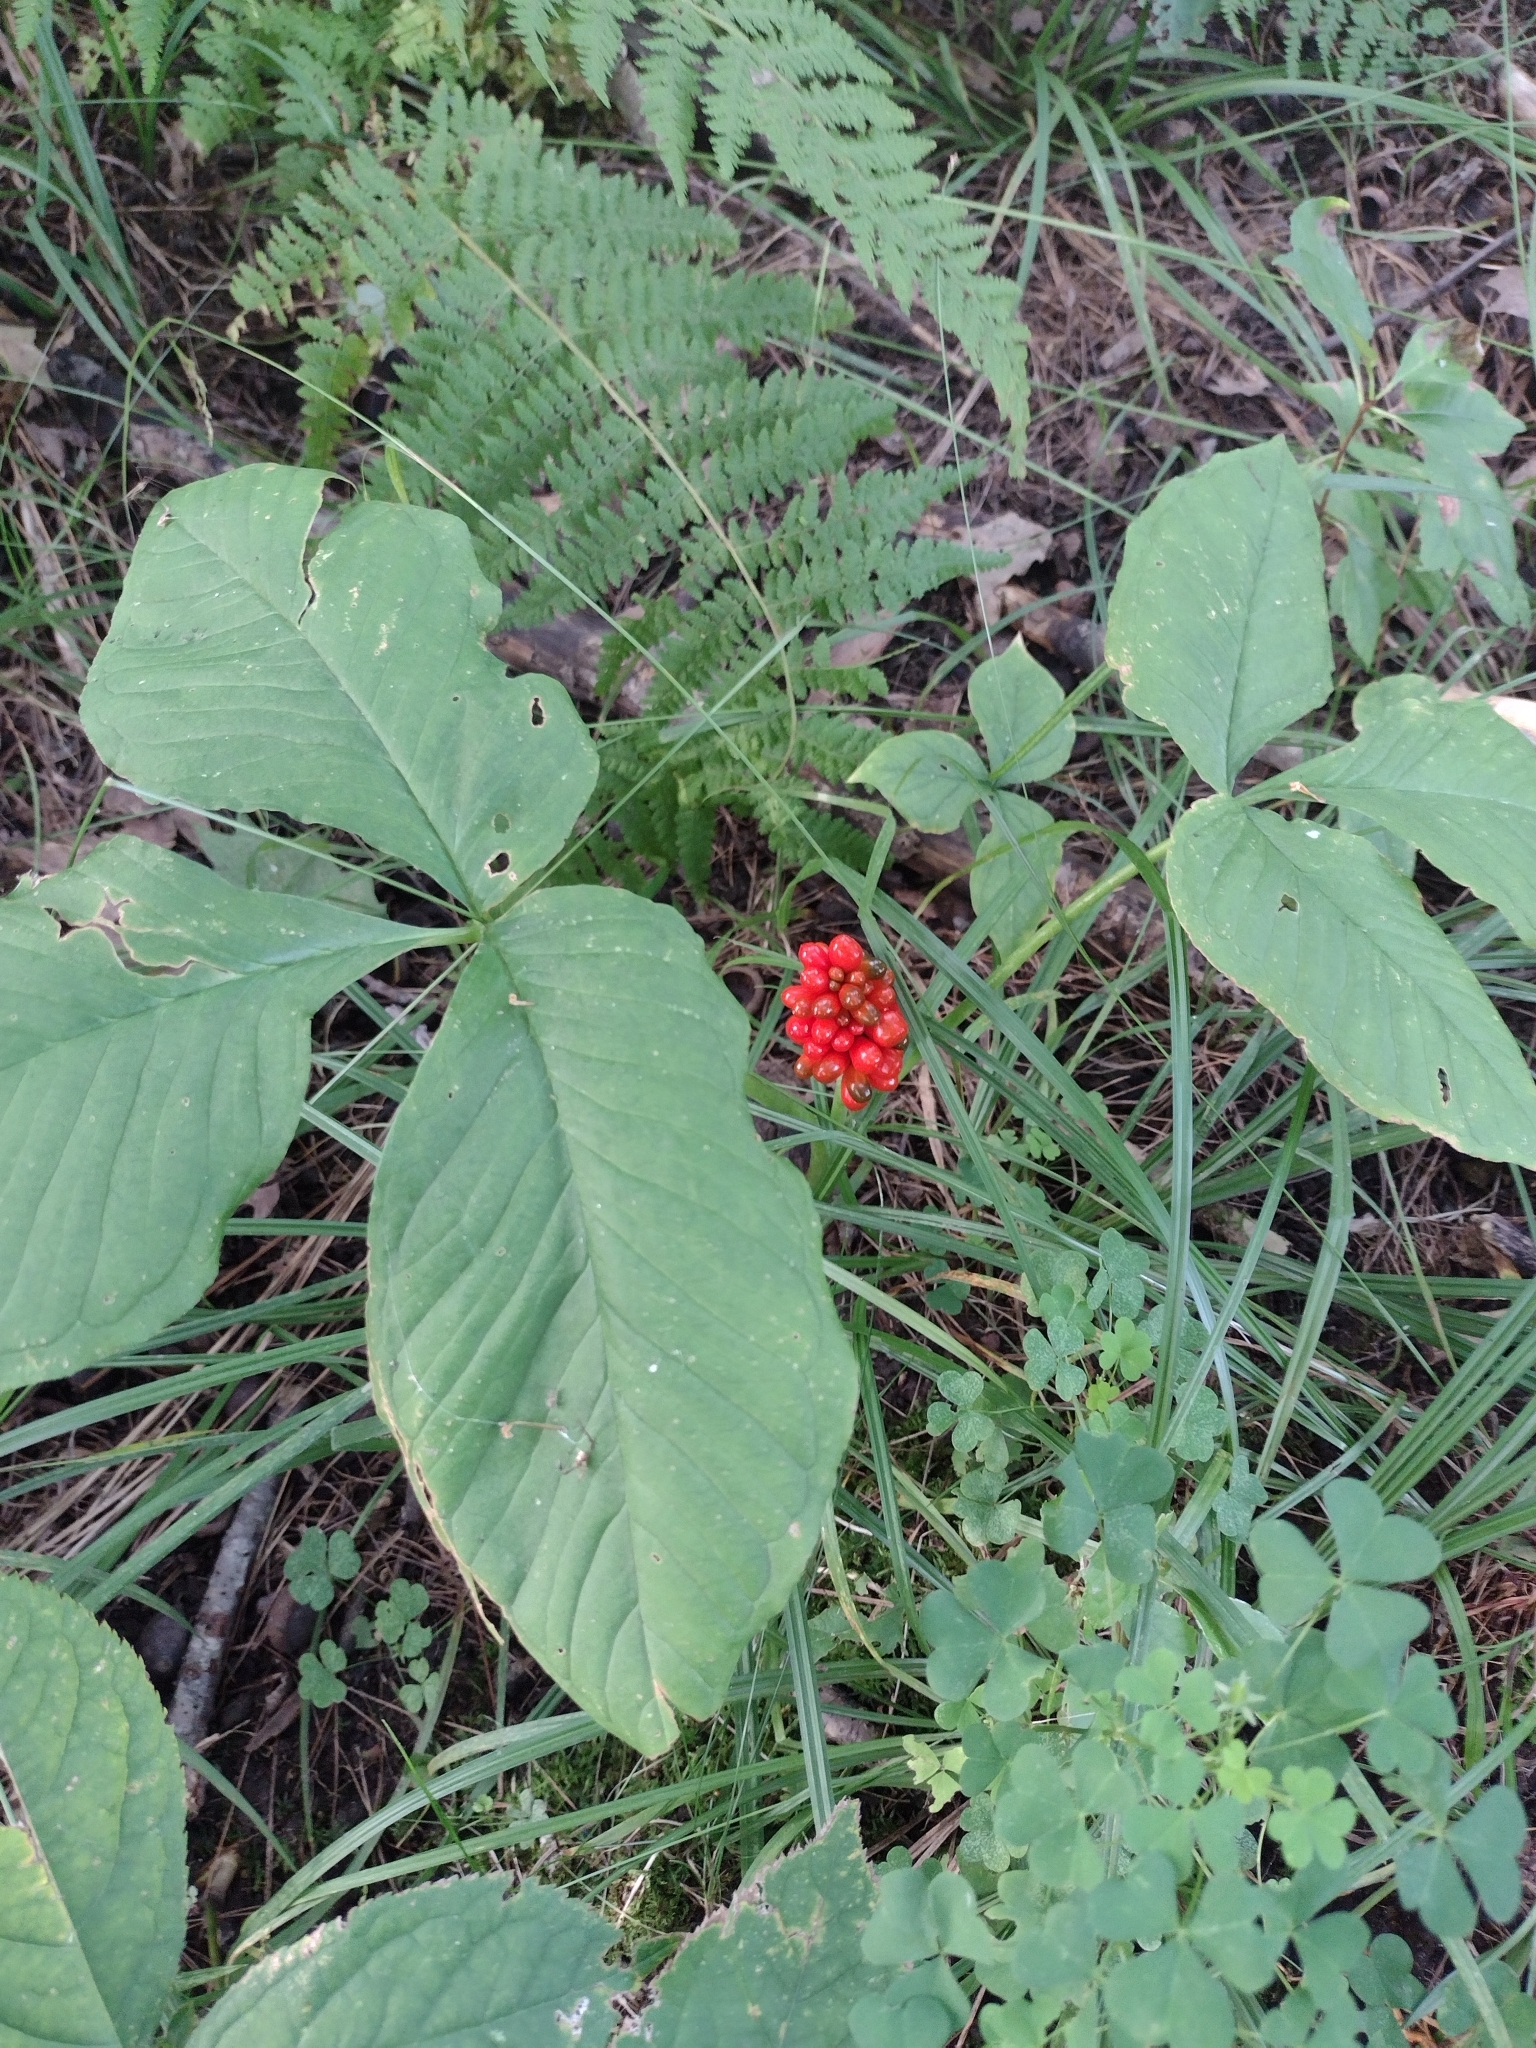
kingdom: Plantae
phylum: Tracheophyta
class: Liliopsida
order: Alismatales
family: Araceae
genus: Arisaema
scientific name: Arisaema triphyllum
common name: Jack-in-the-pulpit
